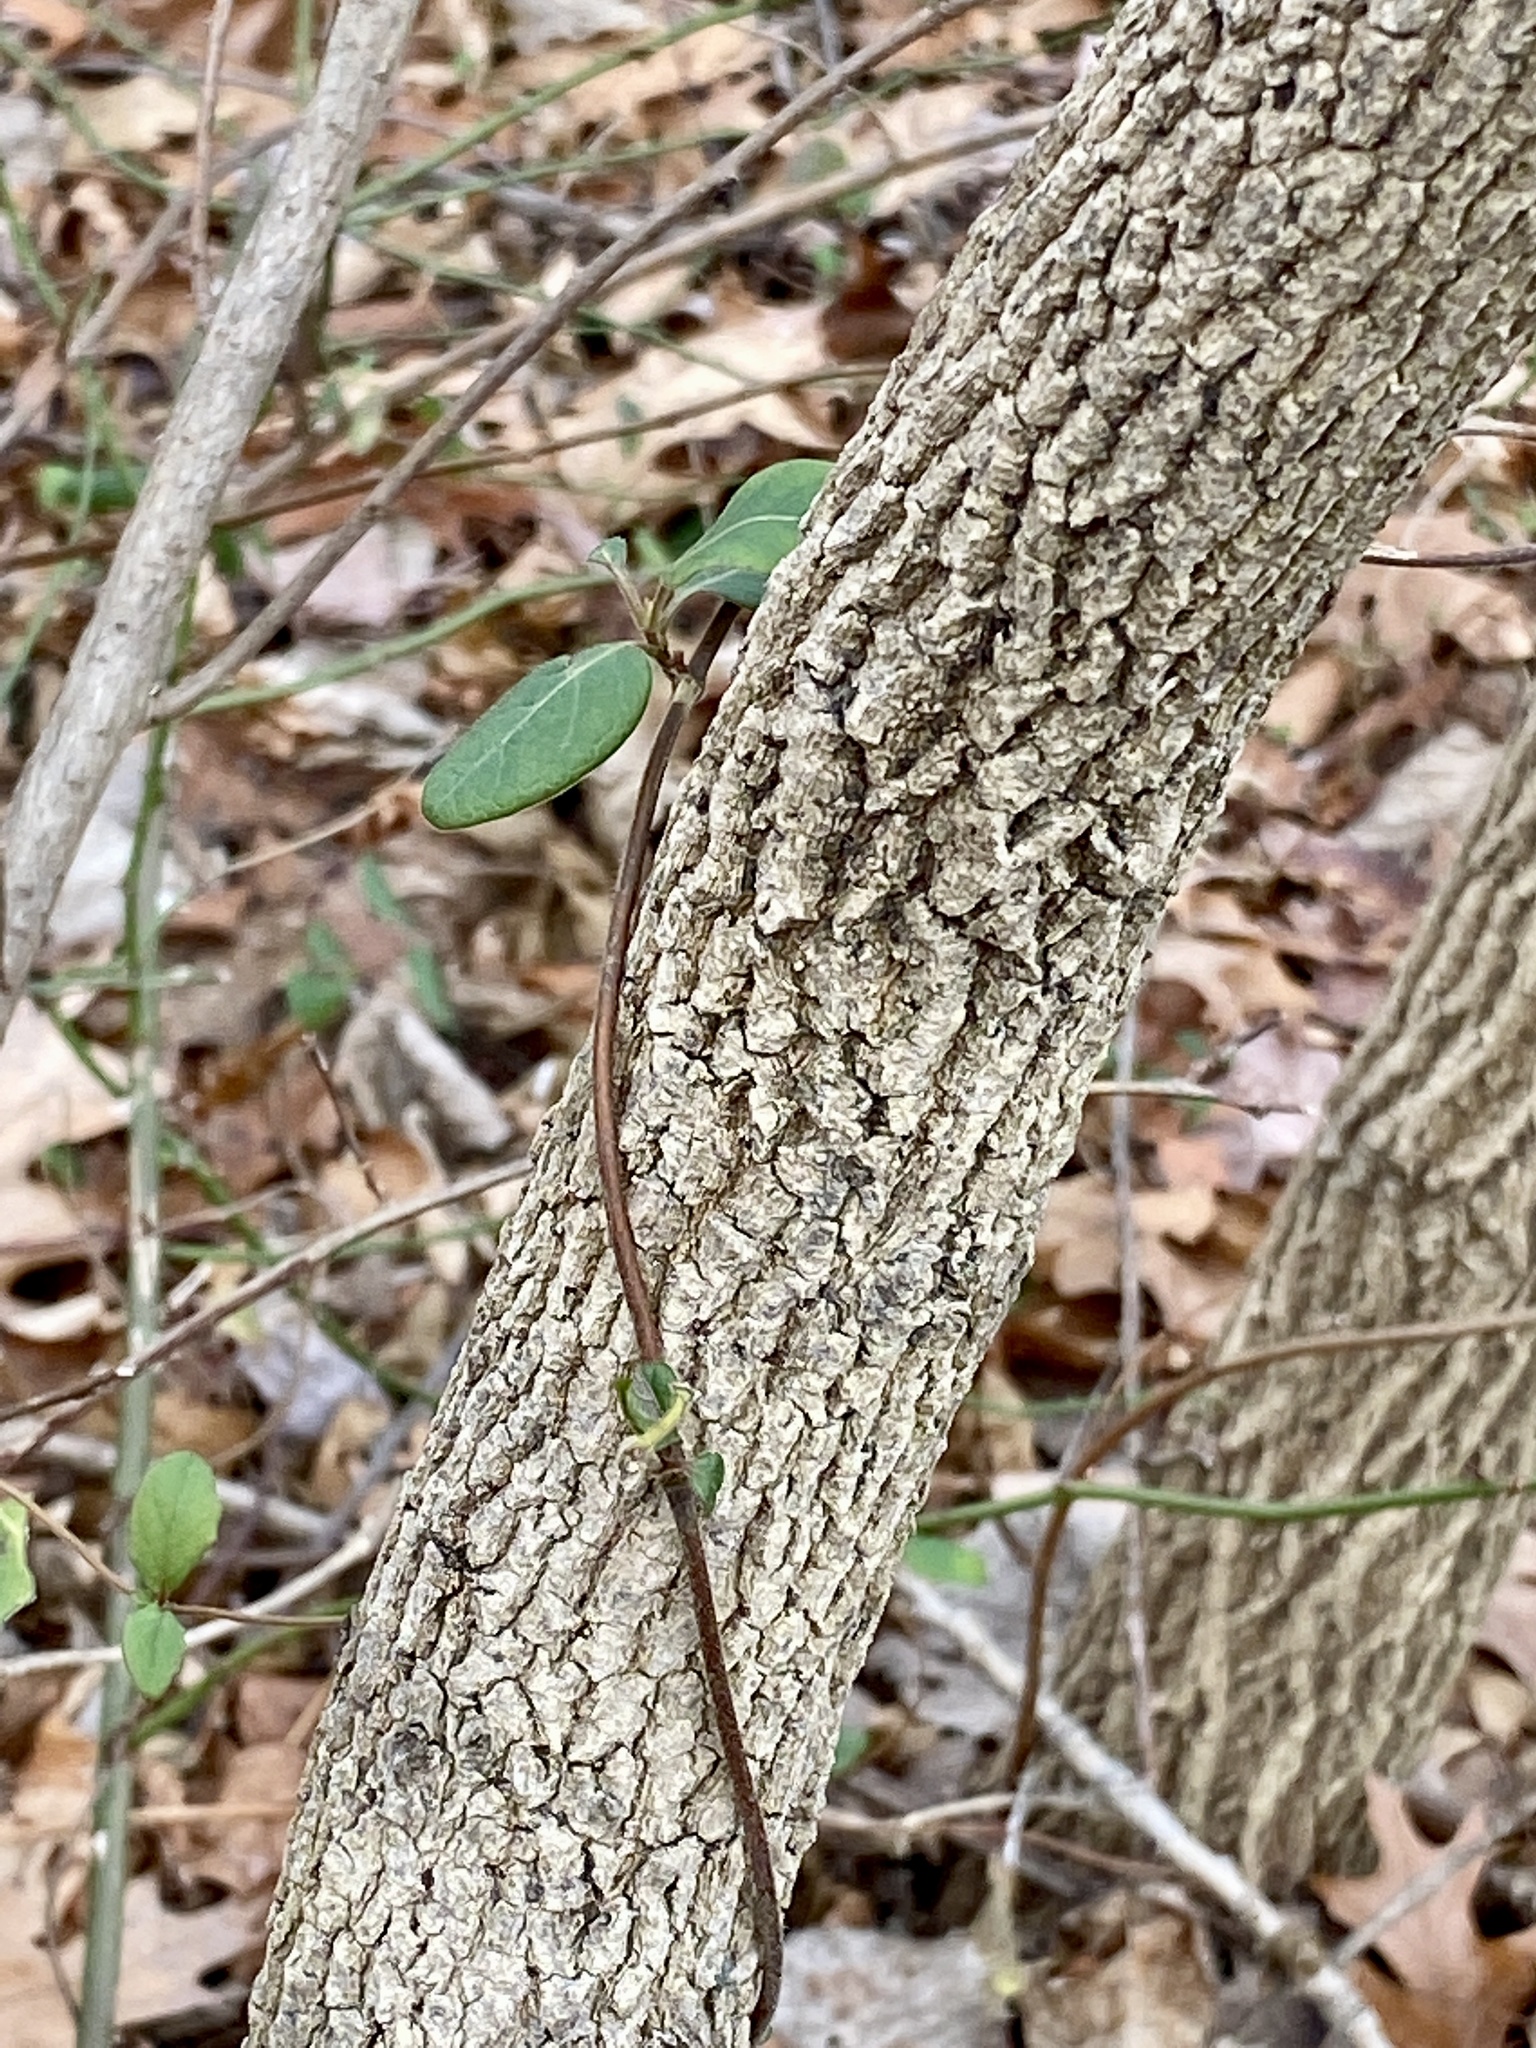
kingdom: Plantae
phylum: Tracheophyta
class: Magnoliopsida
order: Dipsacales
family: Caprifoliaceae
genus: Lonicera
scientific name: Lonicera japonica
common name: Japanese honeysuckle
